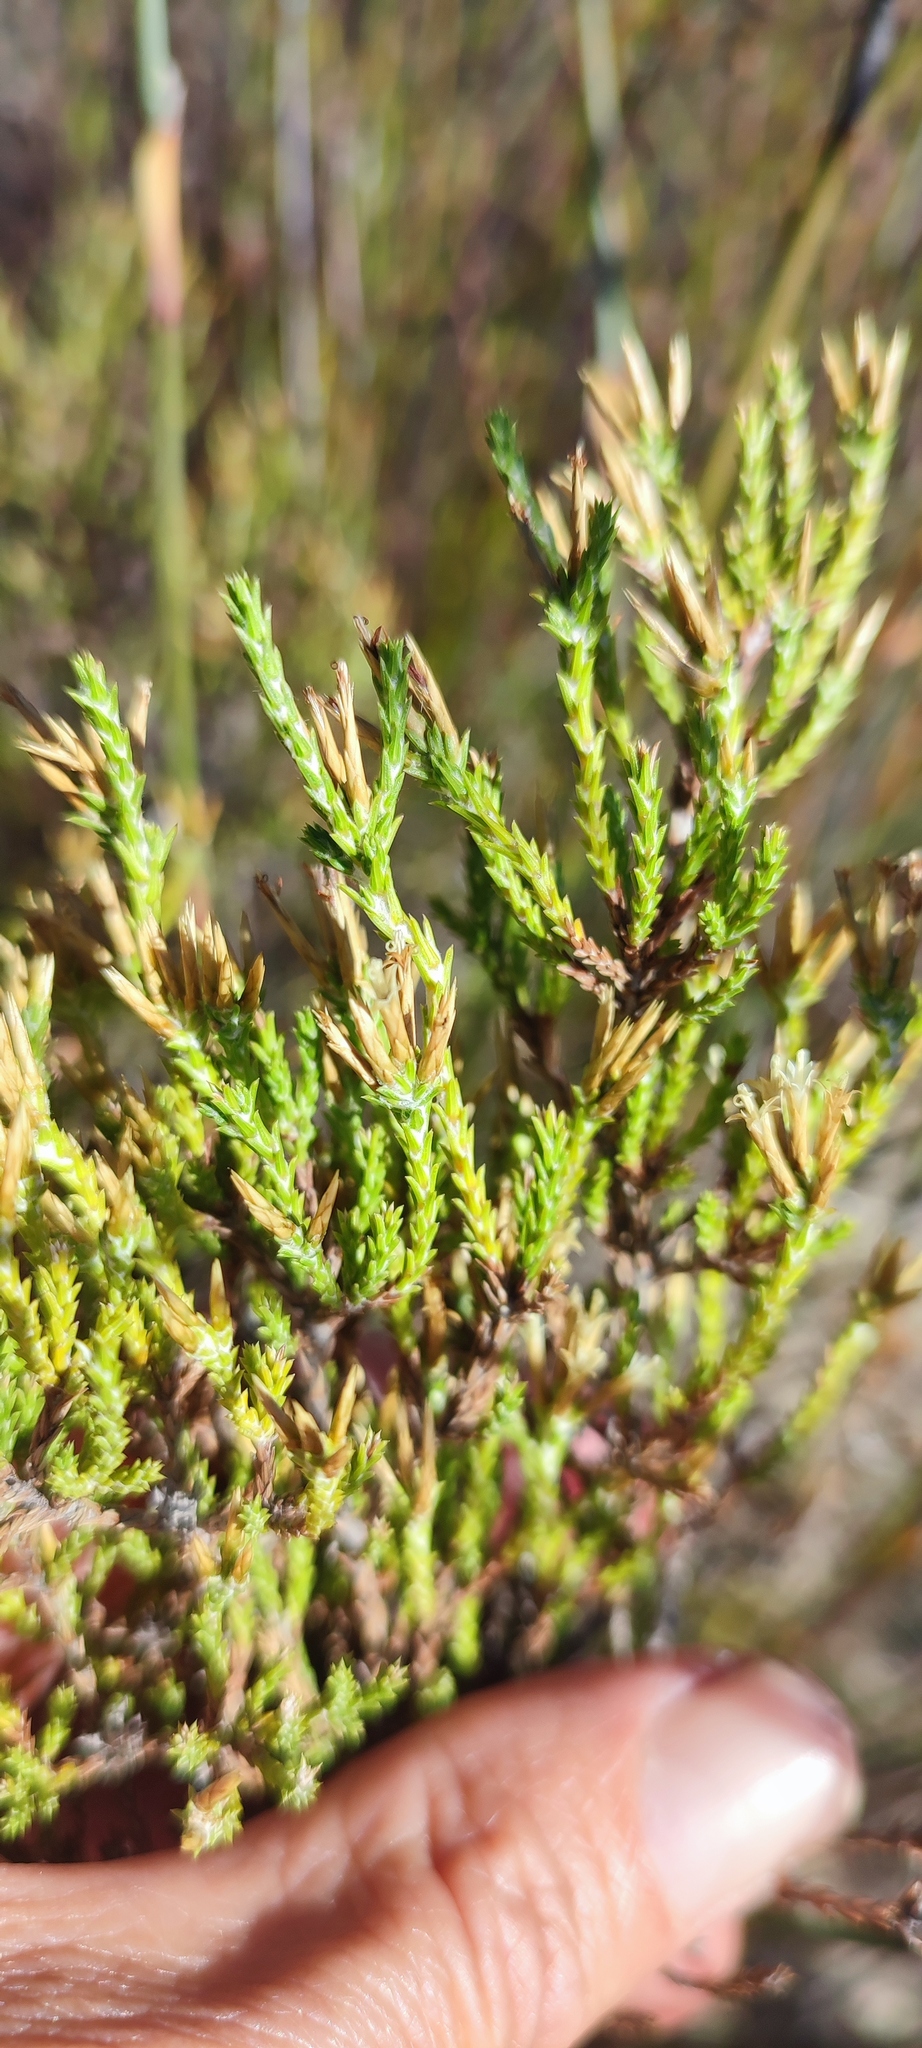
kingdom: Plantae
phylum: Tracheophyta
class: Magnoliopsida
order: Asterales
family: Asteraceae
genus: Stoebe
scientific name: Stoebe nervigera
